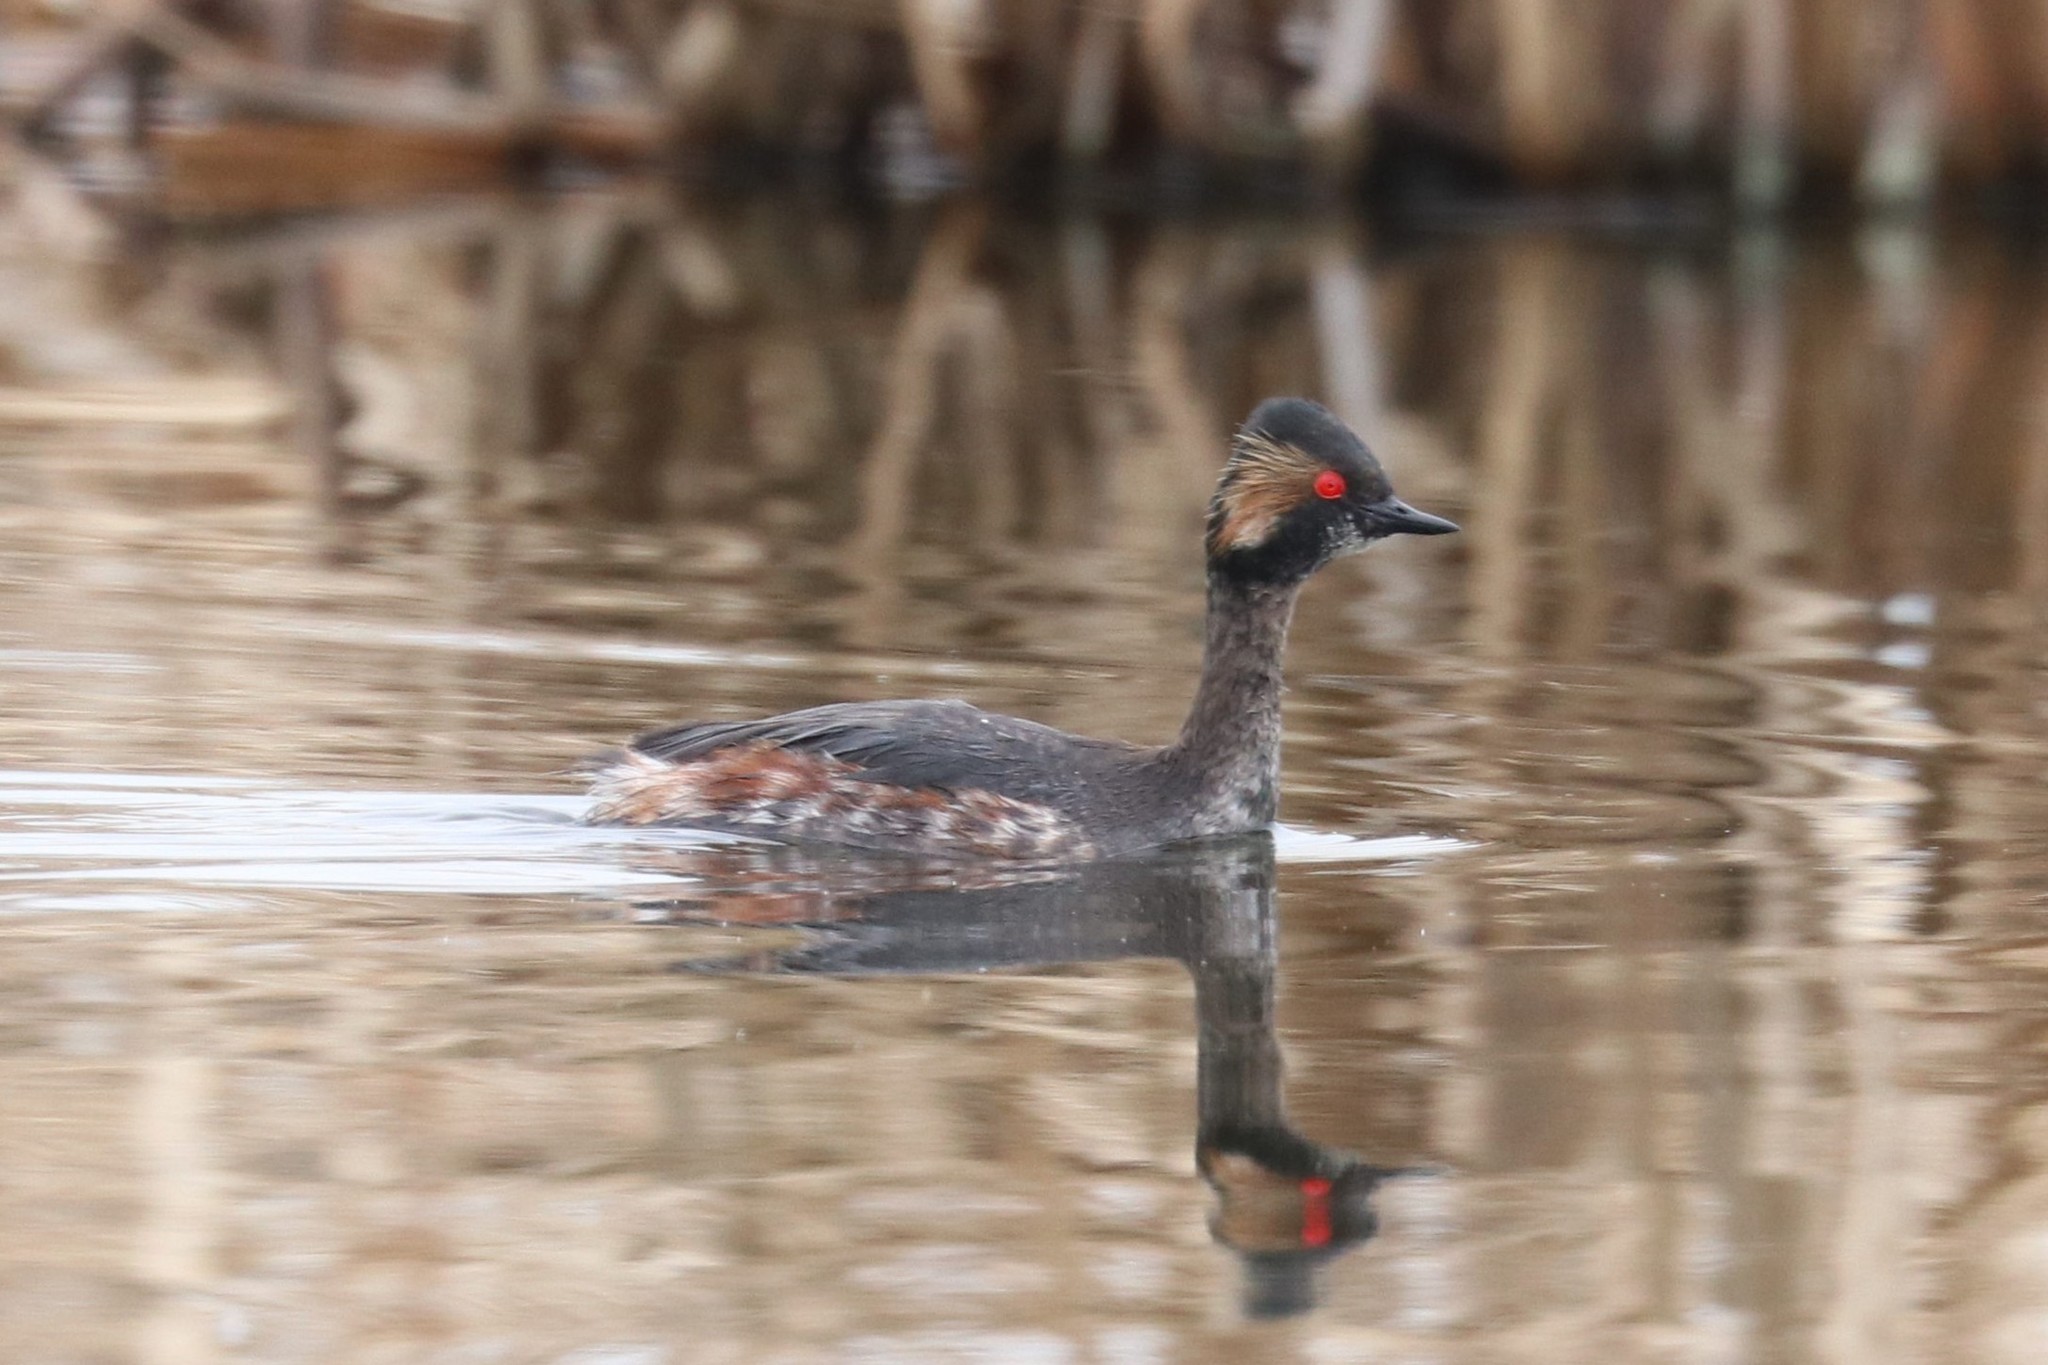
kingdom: Animalia
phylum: Chordata
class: Aves
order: Podicipediformes
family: Podicipedidae
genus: Podiceps
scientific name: Podiceps nigricollis
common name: Black-necked grebe
